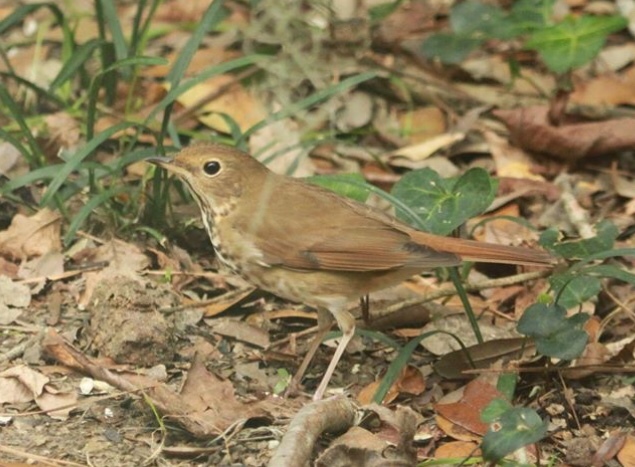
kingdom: Animalia
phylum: Chordata
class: Aves
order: Passeriformes
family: Turdidae
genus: Catharus
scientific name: Catharus guttatus
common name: Hermit thrush
